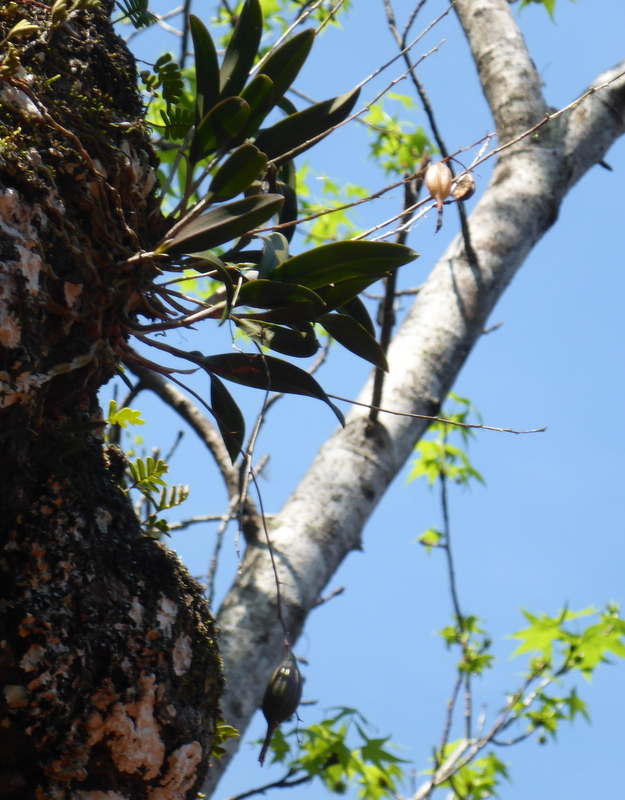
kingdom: Plantae
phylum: Tracheophyta
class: Liliopsida
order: Asparagales
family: Orchidaceae
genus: Epidendrum
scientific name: Epidendrum conopseum
